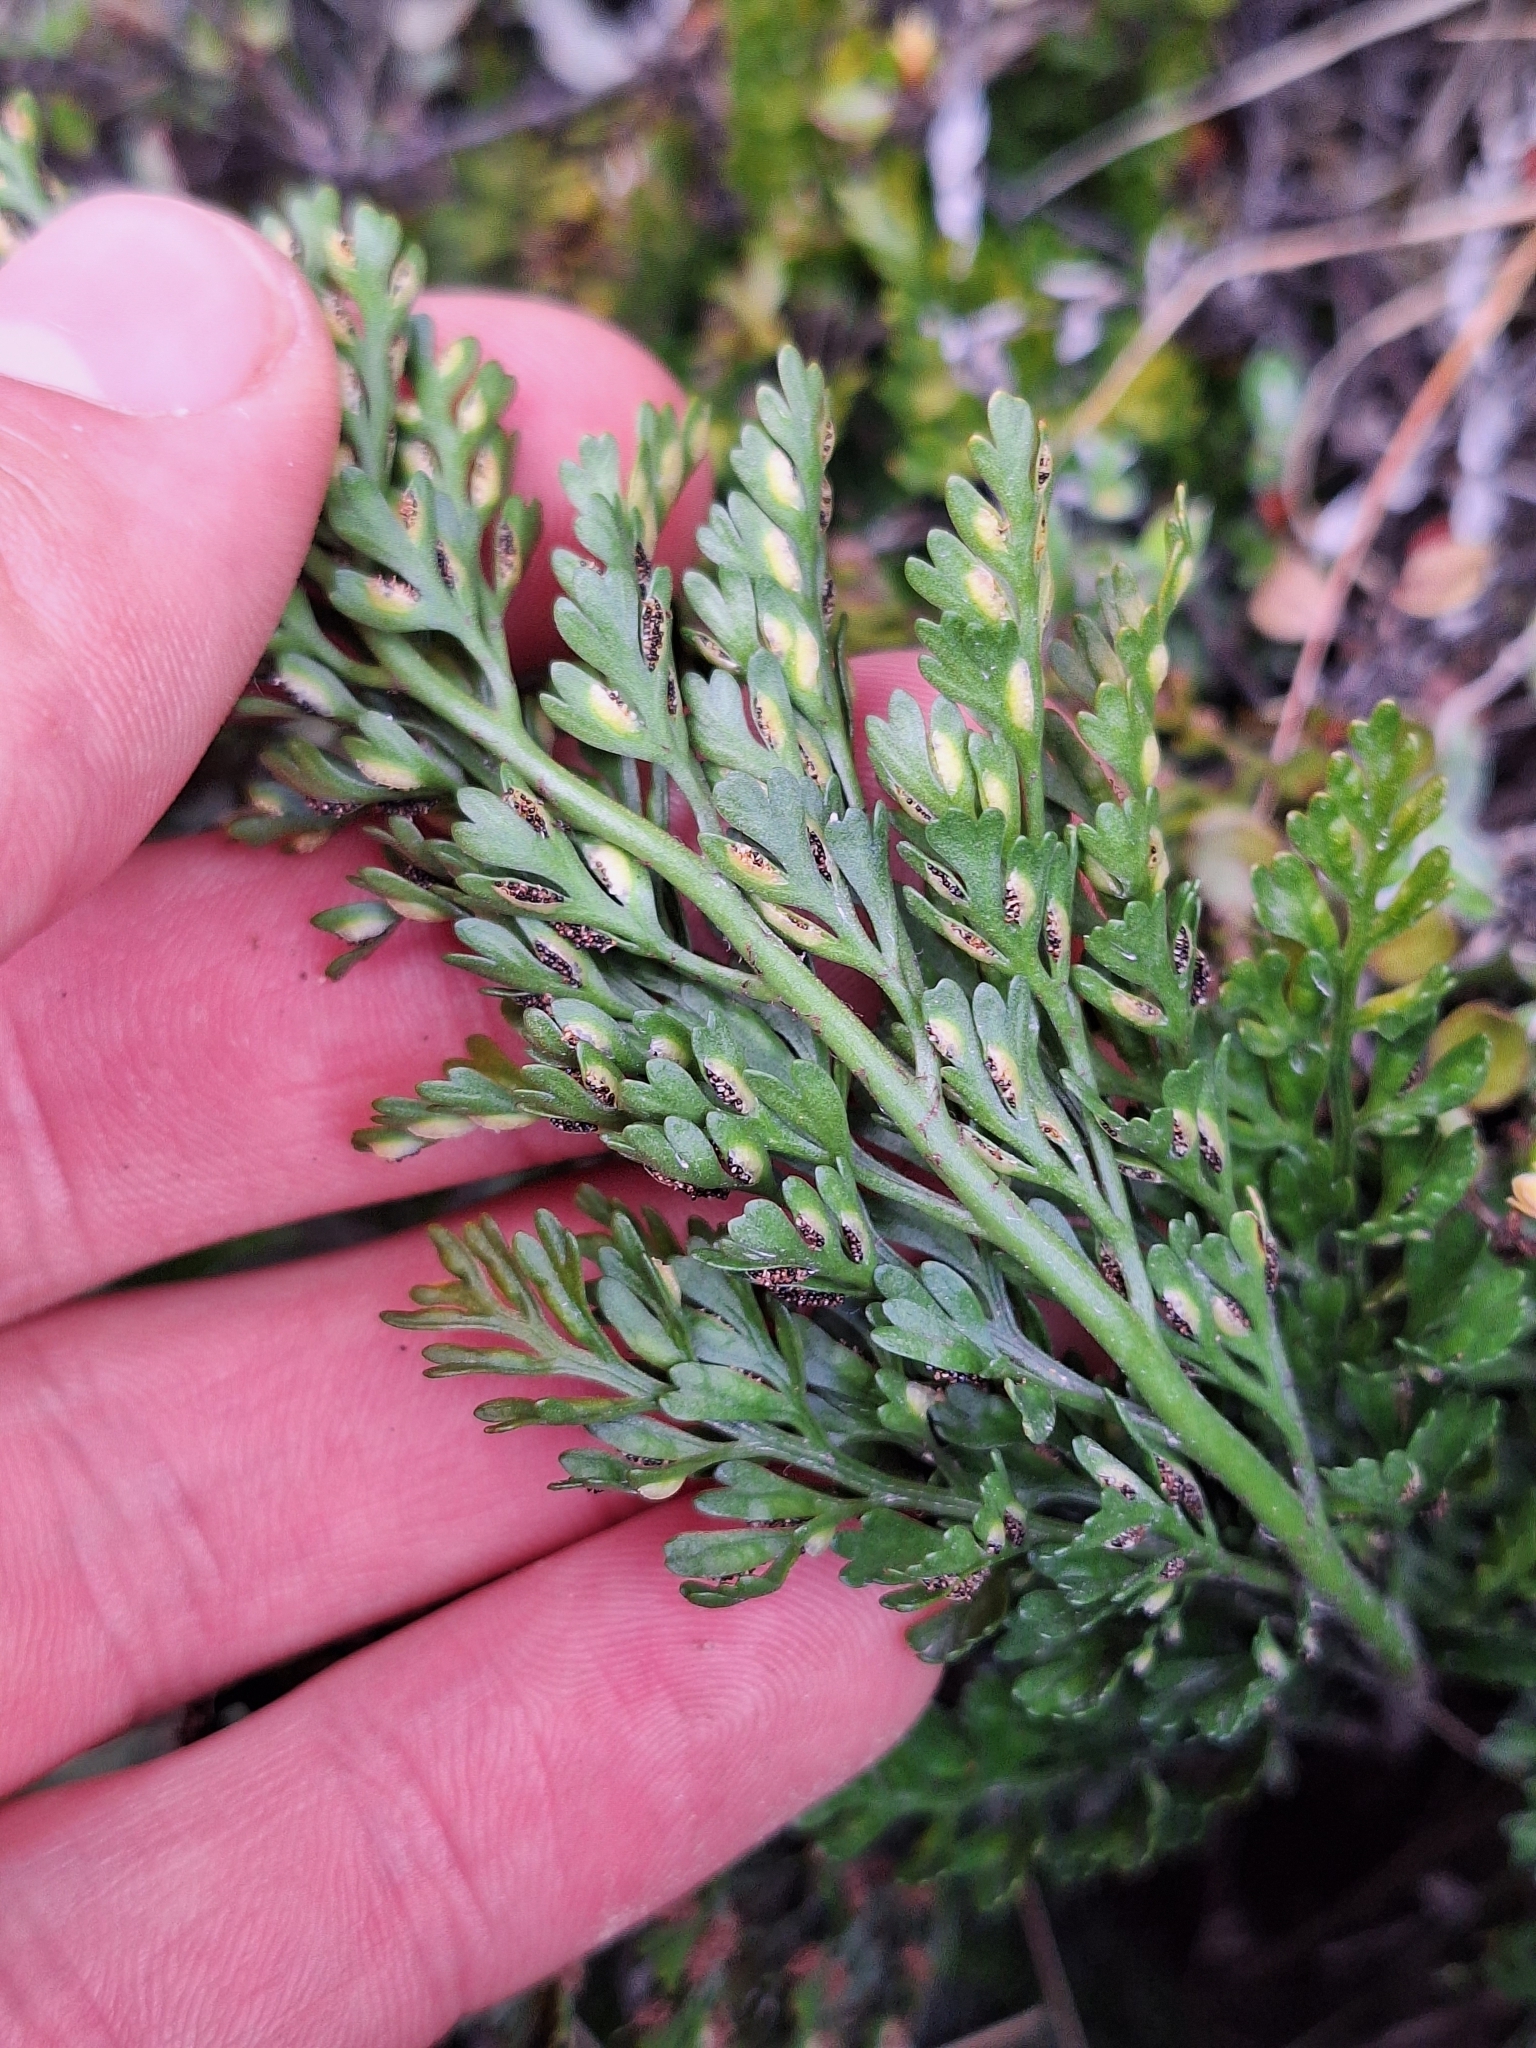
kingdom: Plantae
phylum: Tracheophyta
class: Polypodiopsida
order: Polypodiales
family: Aspleniaceae
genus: Asplenium
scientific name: Asplenium richardii
